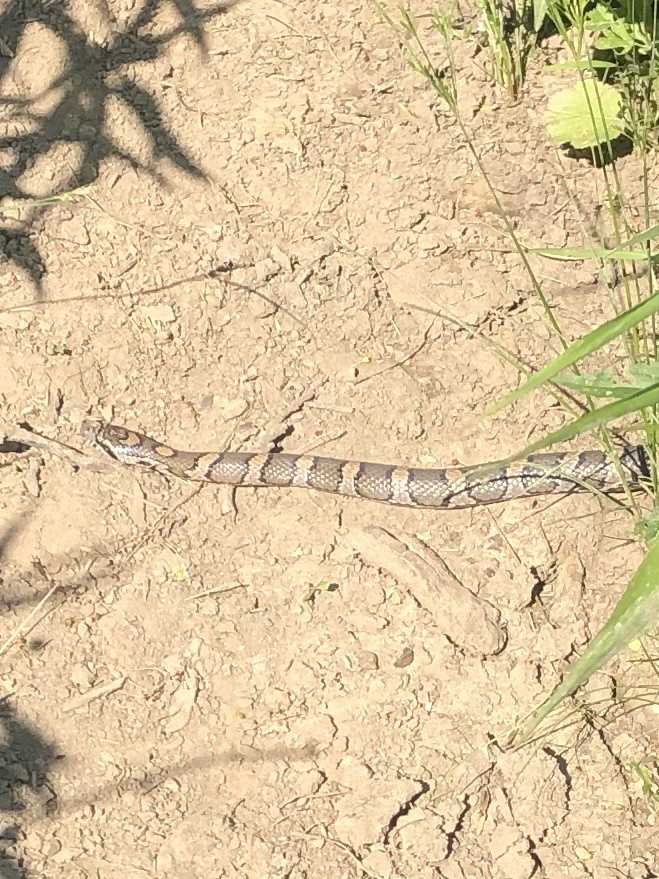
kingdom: Animalia
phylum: Chordata
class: Squamata
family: Colubridae
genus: Lampropeltis
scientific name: Lampropeltis triangulum
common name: Eastern milksnake
